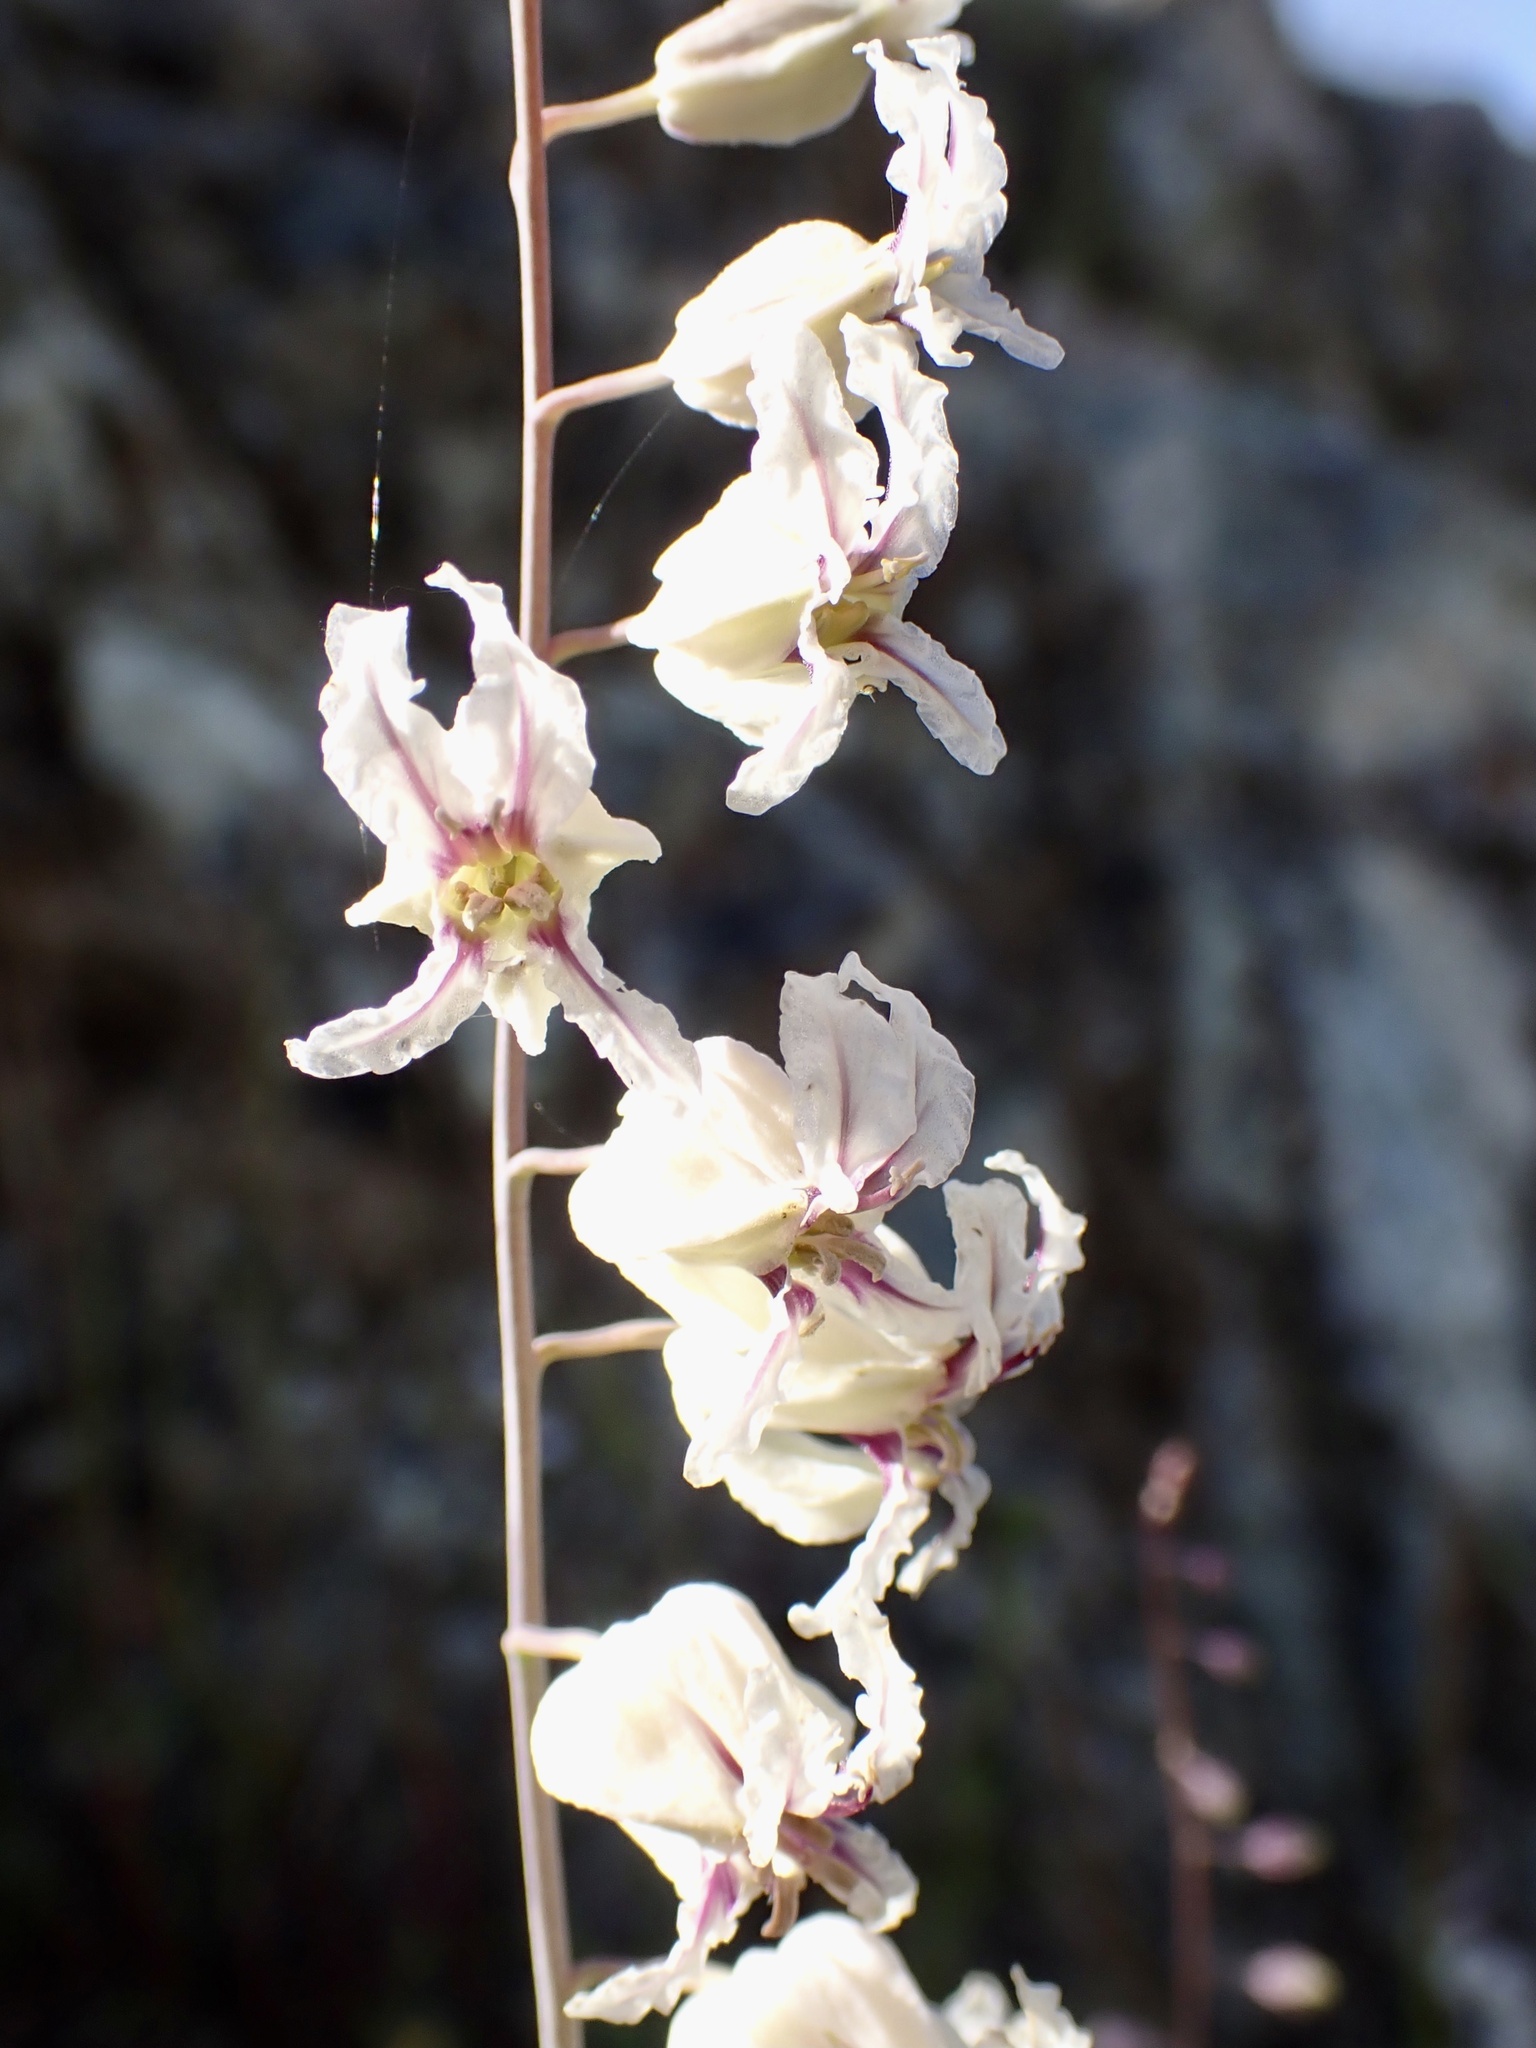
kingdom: Plantae
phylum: Tracheophyta
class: Magnoliopsida
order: Brassicales
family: Brassicaceae
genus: Streptanthus
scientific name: Streptanthus glandulosus
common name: Jewel-flower
